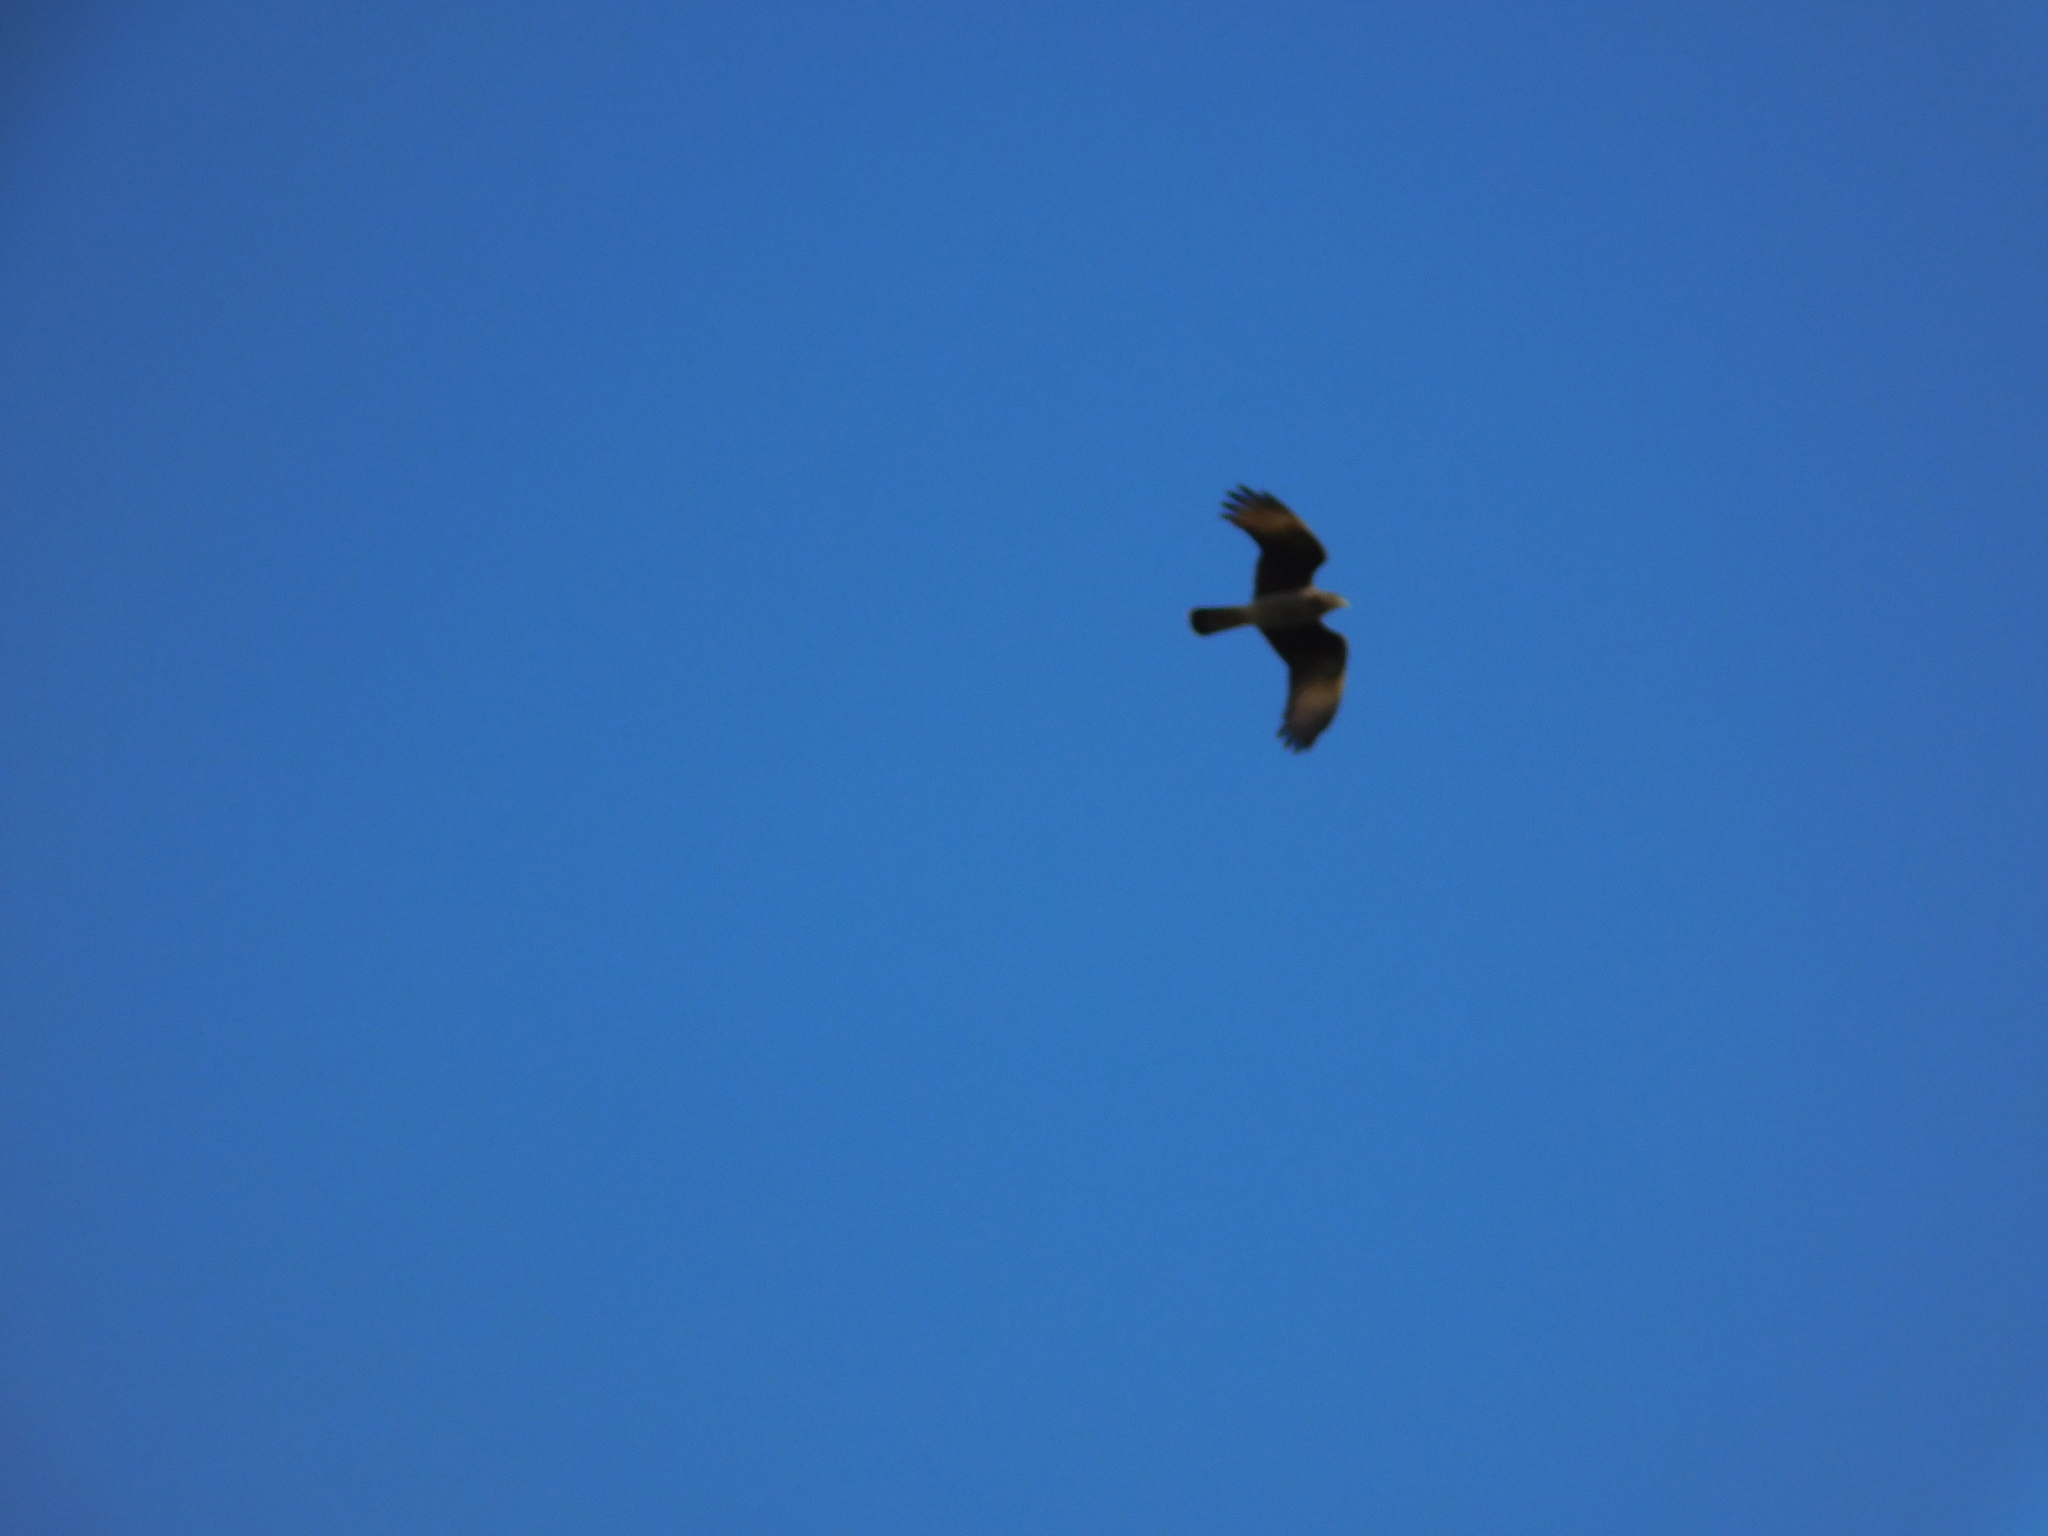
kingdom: Animalia
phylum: Chordata
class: Aves
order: Falconiformes
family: Falconidae
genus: Daptrius
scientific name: Daptrius
